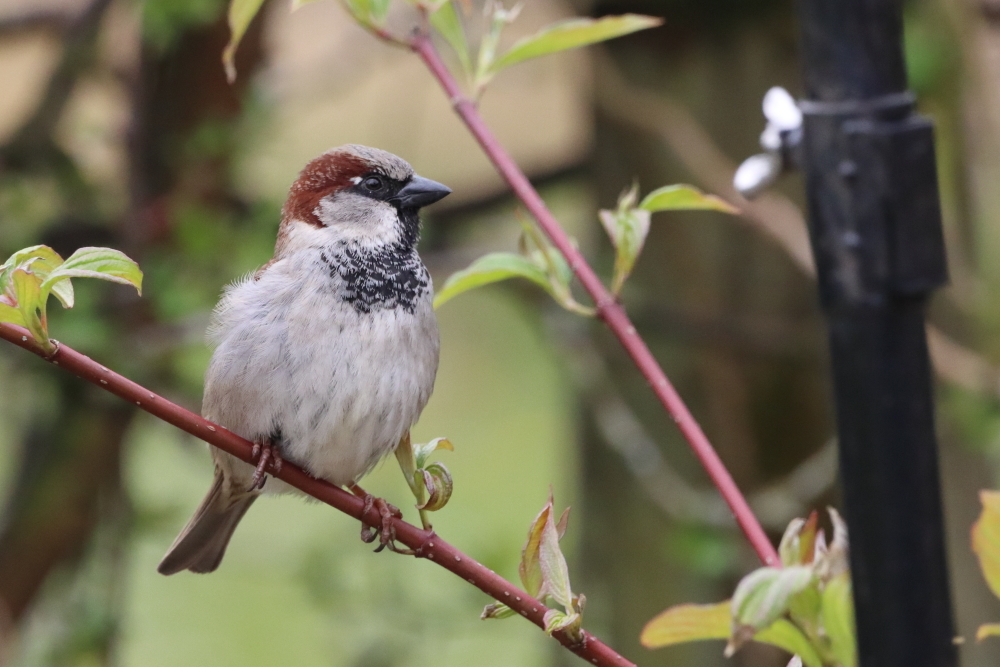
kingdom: Animalia
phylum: Chordata
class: Aves
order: Passeriformes
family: Passeridae
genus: Passer
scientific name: Passer domesticus
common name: House sparrow
